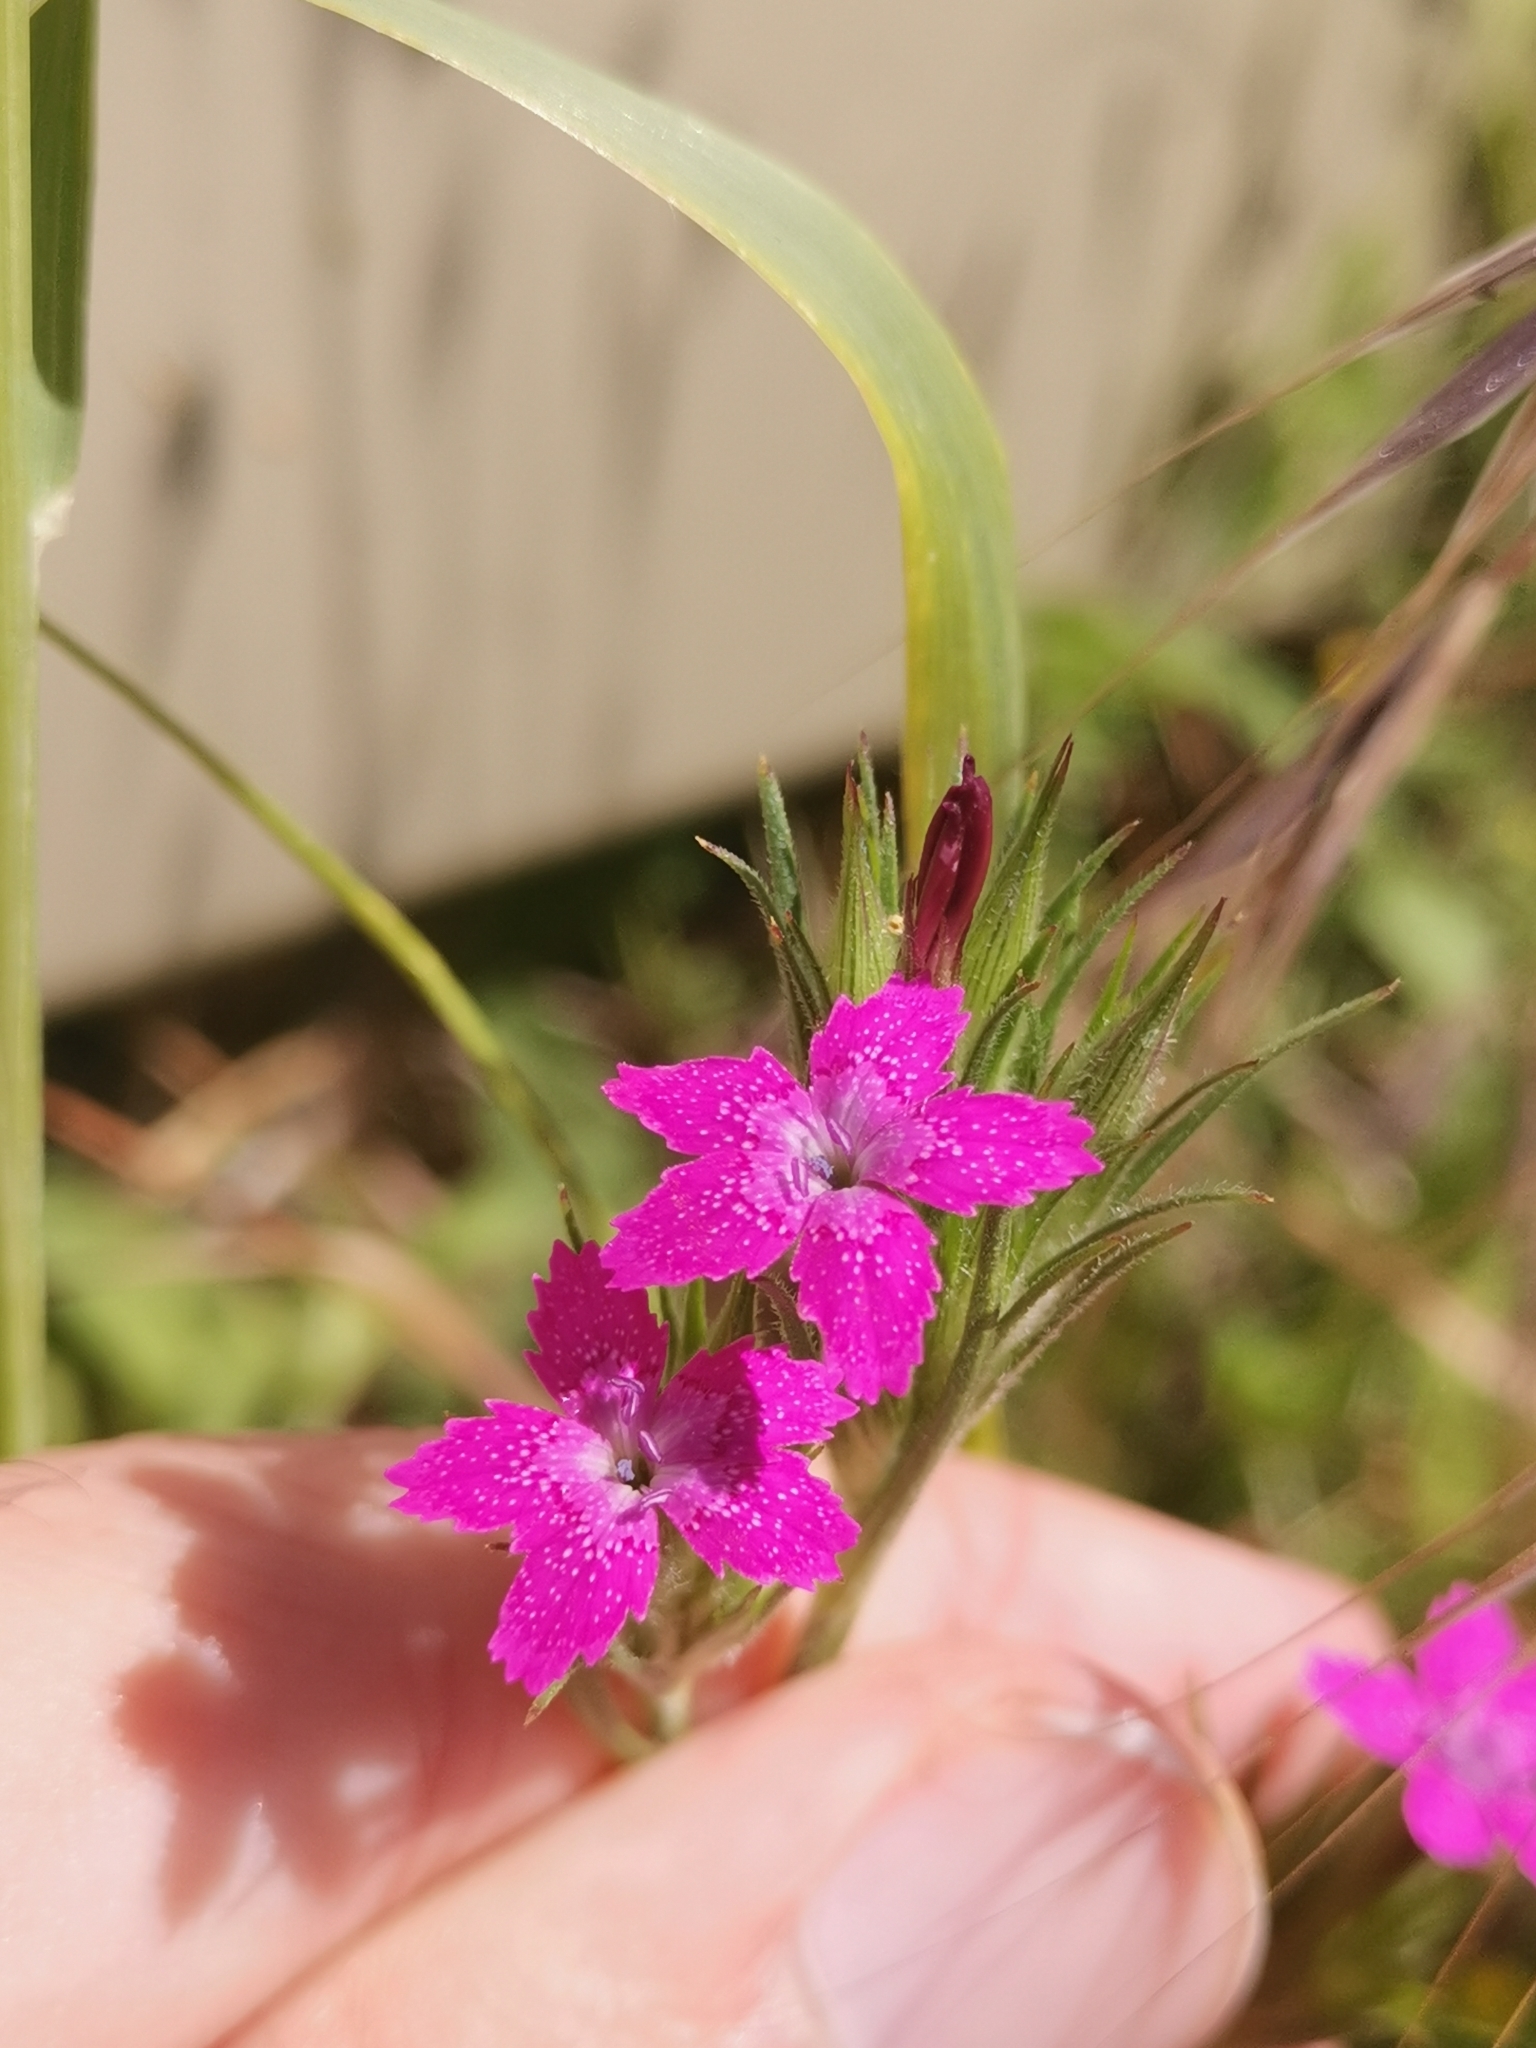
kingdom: Plantae
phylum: Tracheophyta
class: Magnoliopsida
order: Caryophyllales
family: Caryophyllaceae
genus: Dianthus
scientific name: Dianthus armeria
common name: Deptford pink
